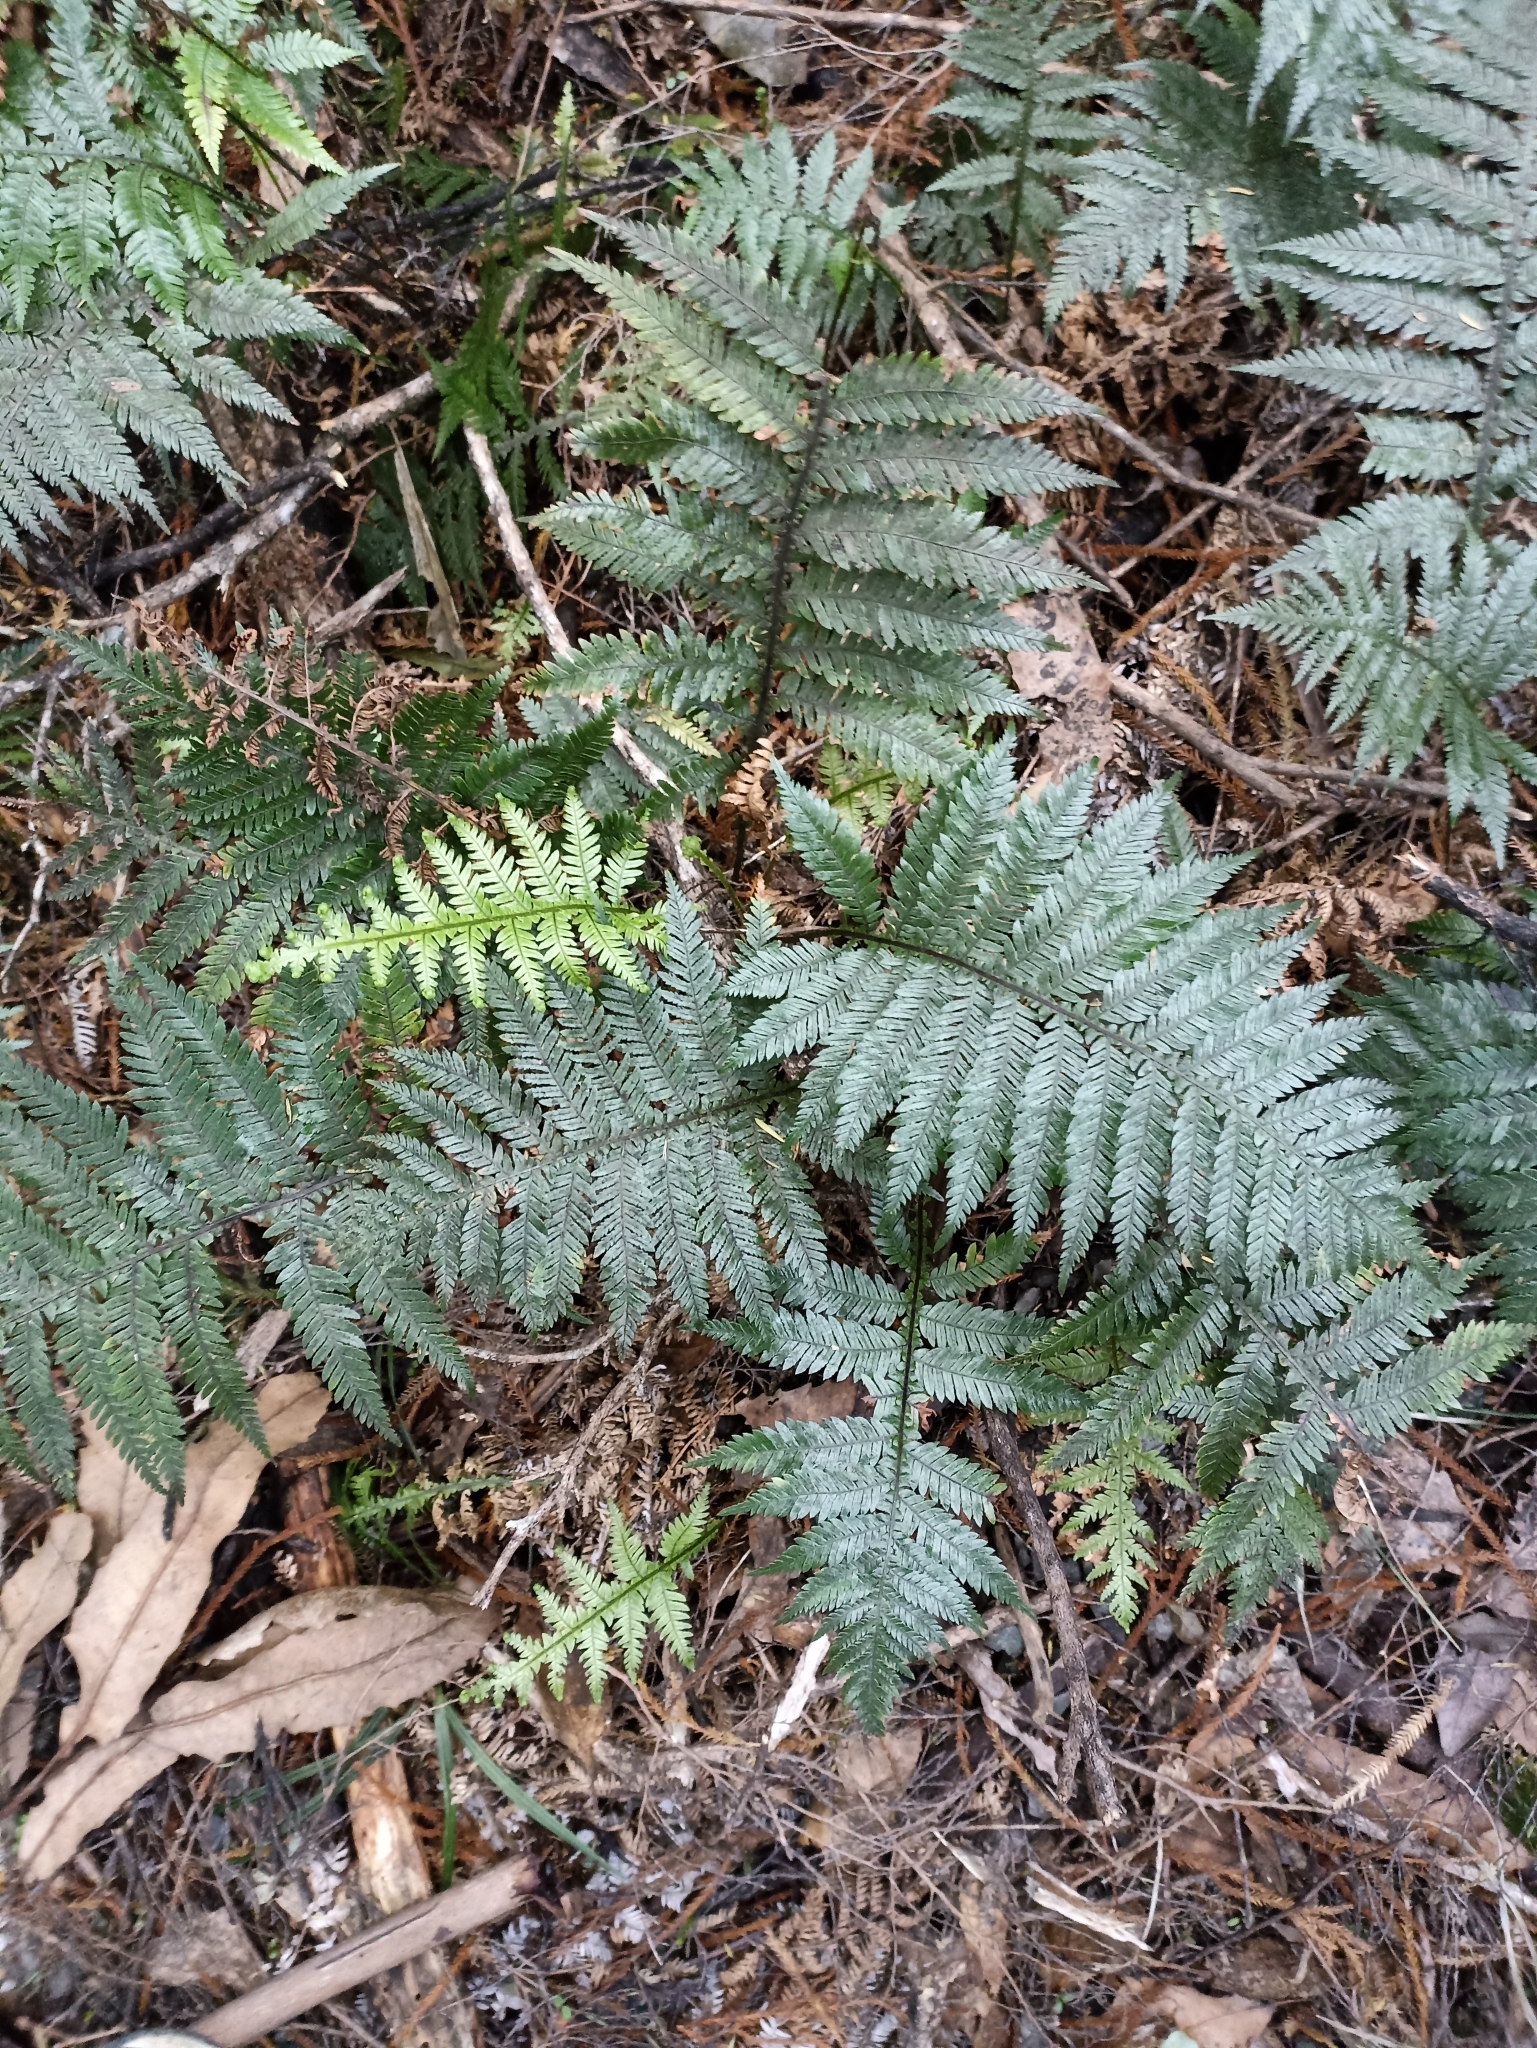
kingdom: Plantae
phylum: Tracheophyta
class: Polypodiopsida
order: Polypodiales
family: Blechnaceae
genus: Diploblechnum
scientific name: Diploblechnum fraseri
